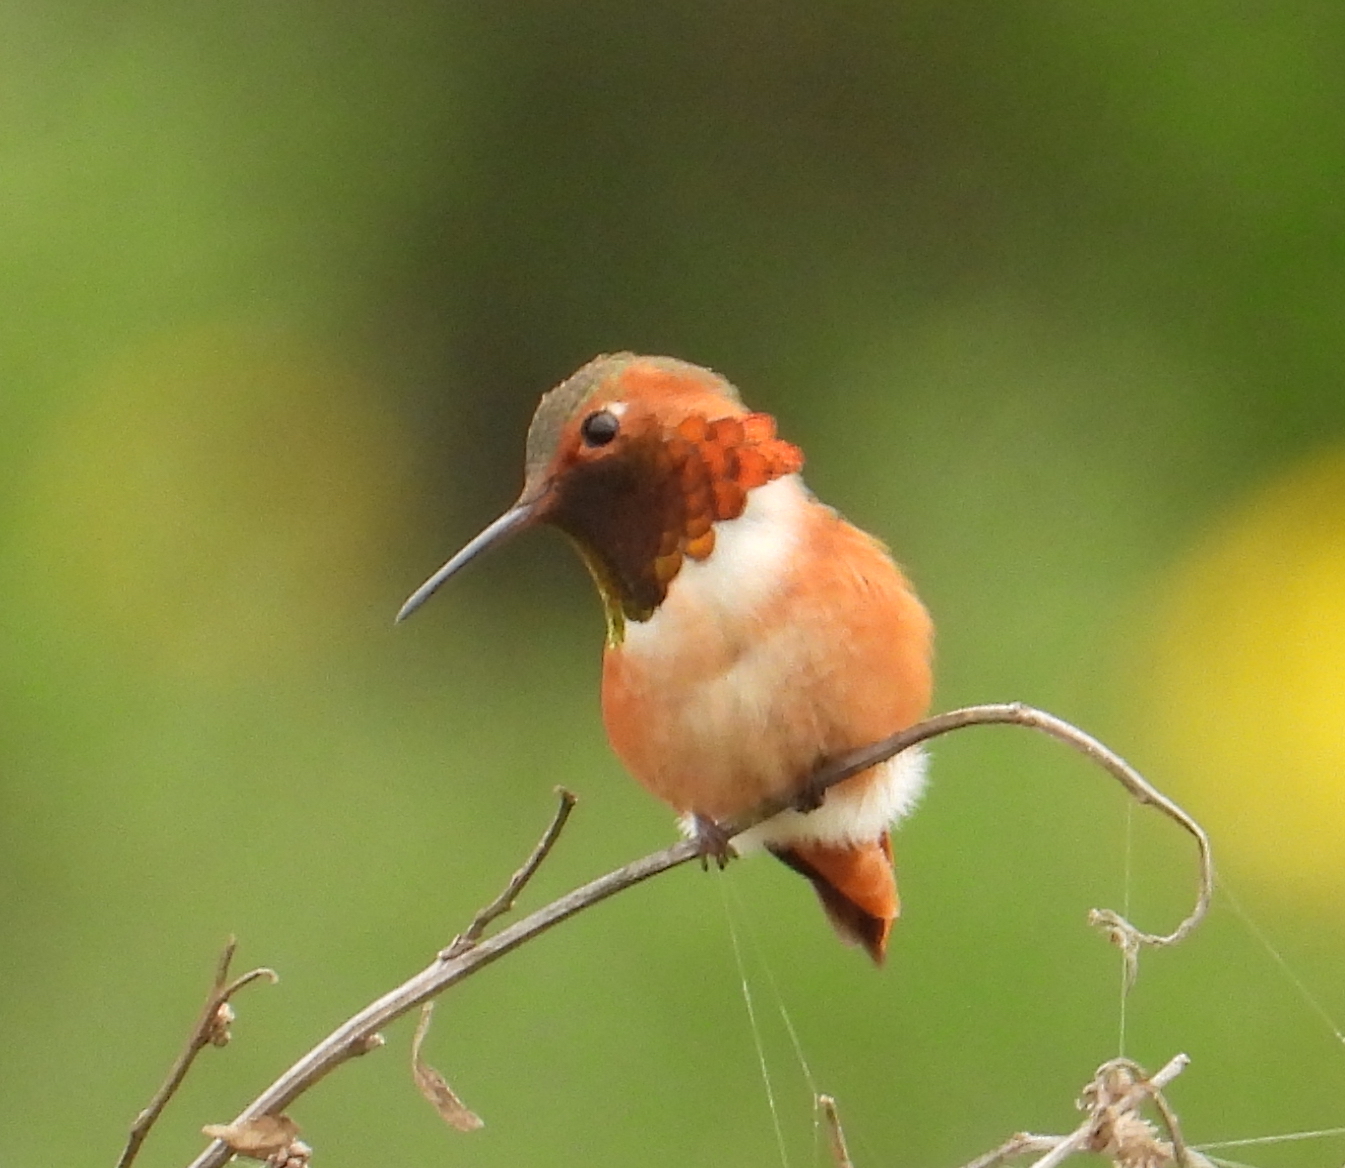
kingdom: Animalia
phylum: Chordata
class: Aves
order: Apodiformes
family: Trochilidae
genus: Selasphorus
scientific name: Selasphorus sasin
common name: Allen's hummingbird
